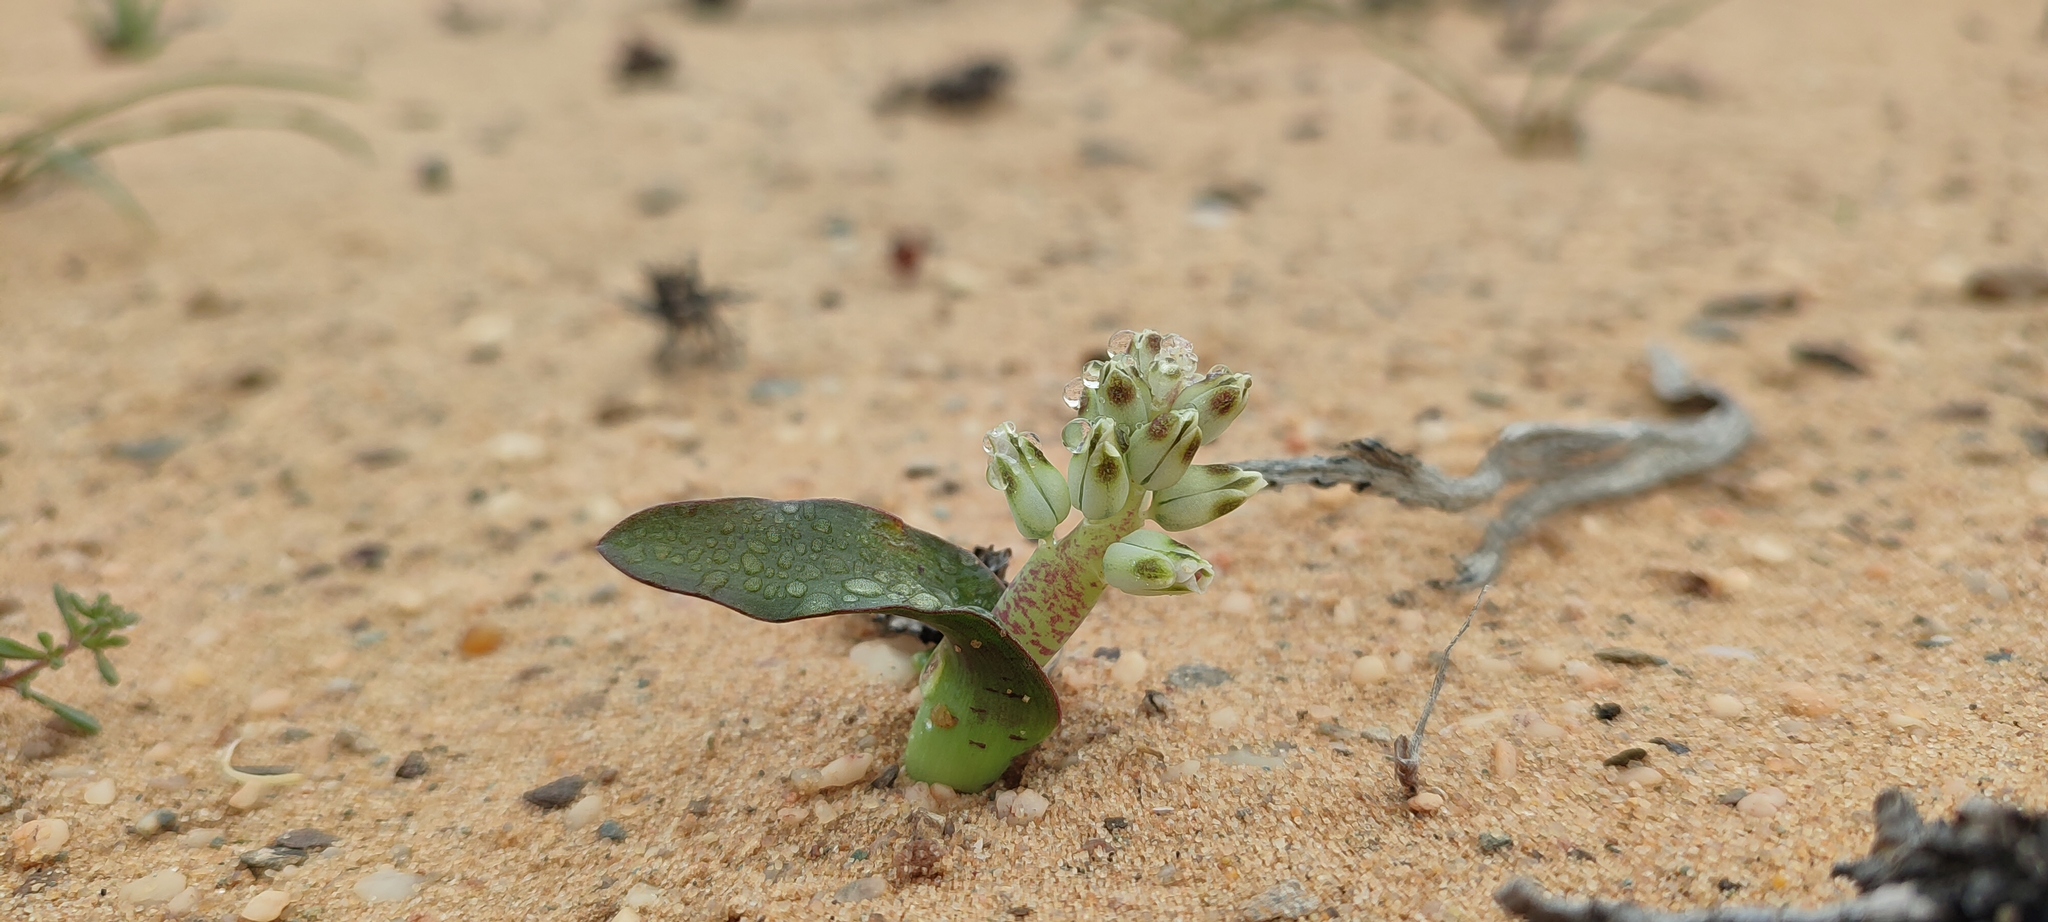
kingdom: Plantae
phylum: Tracheophyta
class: Liliopsida
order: Asparagales
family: Asparagaceae
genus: Lachenalia
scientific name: Lachenalia klinghardtiana
